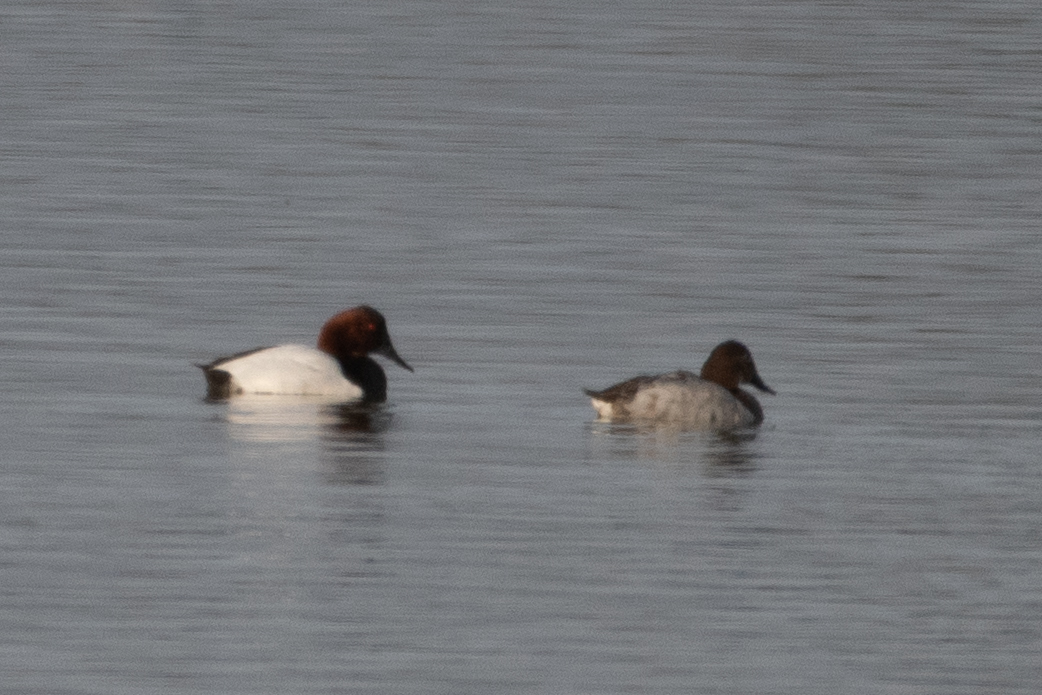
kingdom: Animalia
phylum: Chordata
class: Aves
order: Anseriformes
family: Anatidae
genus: Aythya
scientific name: Aythya valisineria
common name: Canvasback
